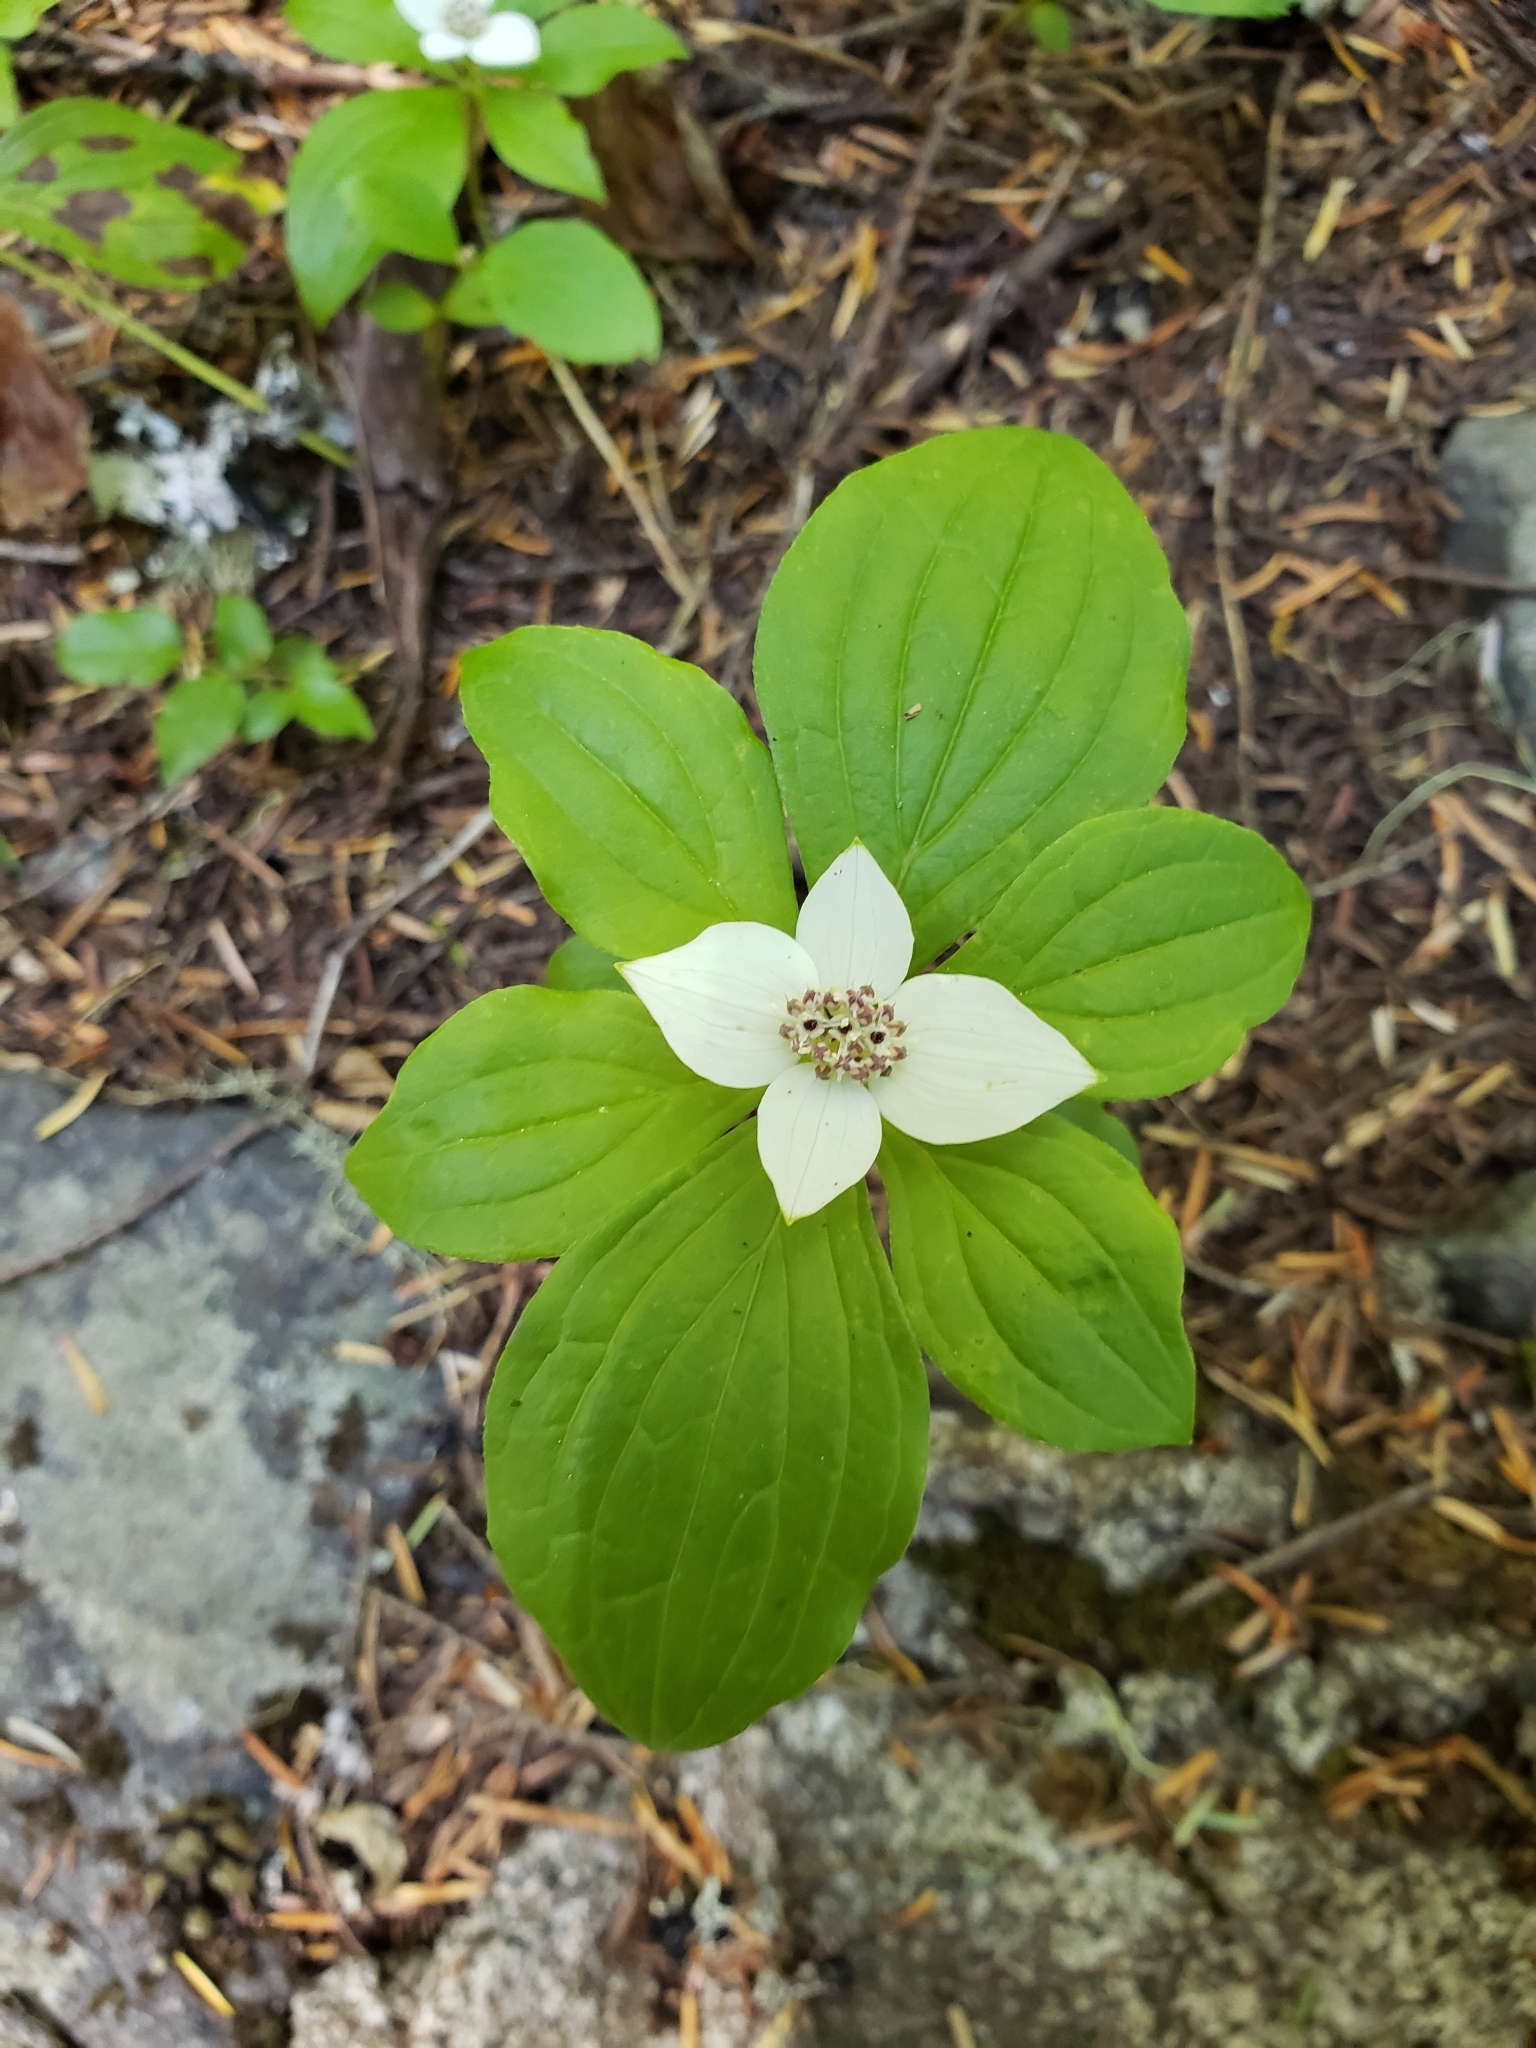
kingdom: Plantae
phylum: Tracheophyta
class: Magnoliopsida
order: Cornales
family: Cornaceae
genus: Cornus
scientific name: Cornus unalaschkensis
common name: Alaska bunchberry
